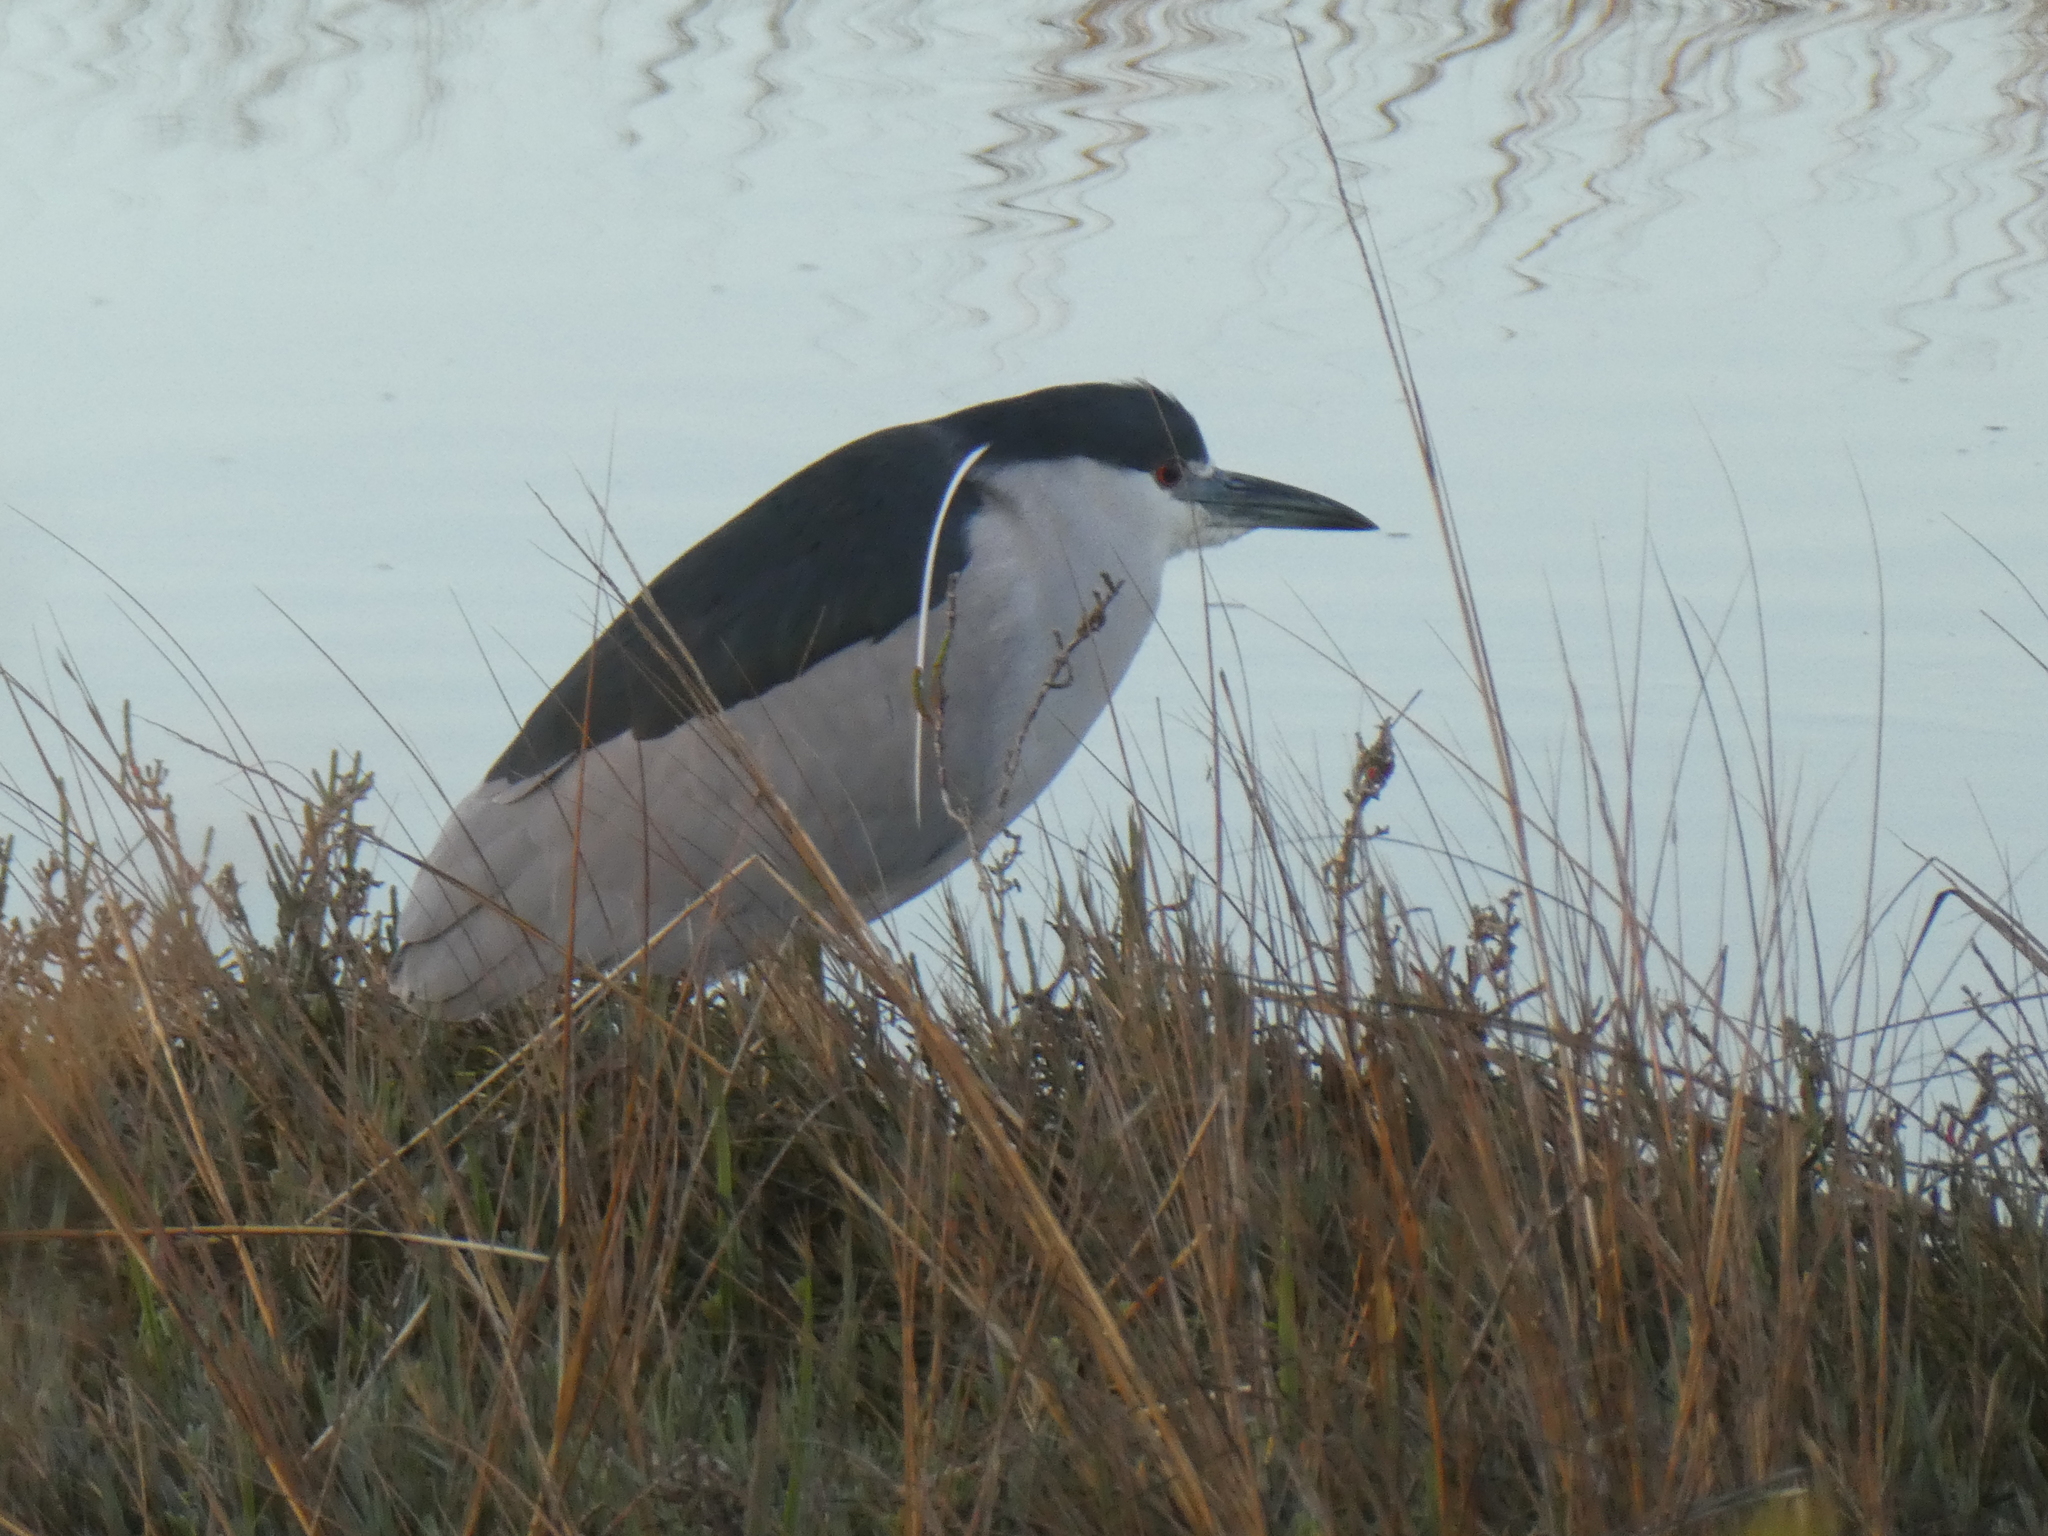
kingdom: Animalia
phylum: Chordata
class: Aves
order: Pelecaniformes
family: Ardeidae
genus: Nycticorax
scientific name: Nycticorax nycticorax
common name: Black-crowned night heron
